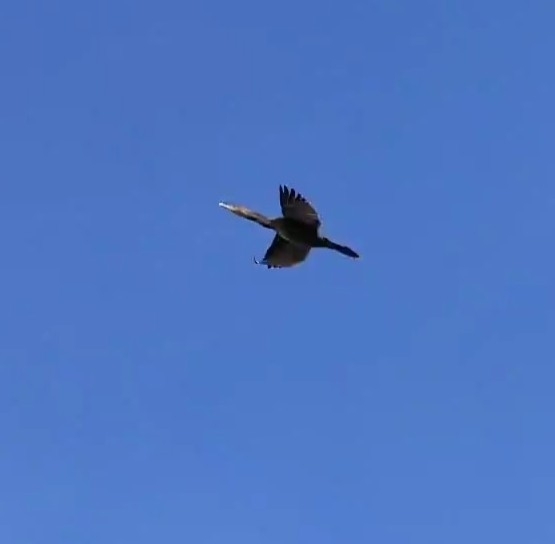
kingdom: Animalia
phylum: Chordata
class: Aves
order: Suliformes
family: Phalacrocoracidae
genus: Phalacrocorax
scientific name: Phalacrocorax auritus
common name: Double-crested cormorant
